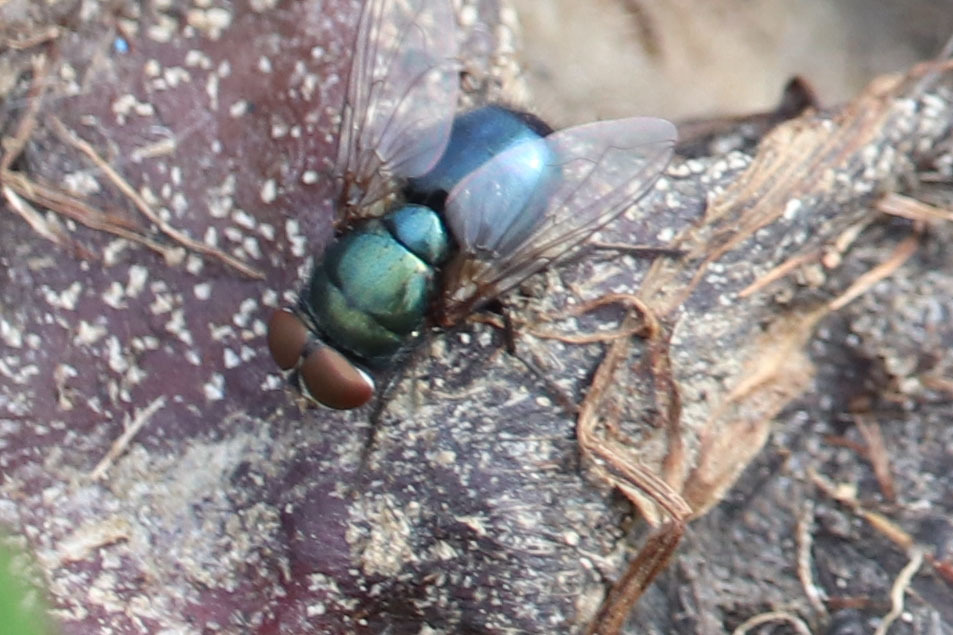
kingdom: Animalia
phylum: Arthropoda
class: Insecta
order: Diptera
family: Calliphoridae
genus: Phormia
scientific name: Phormia regina
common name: Black blow fly
